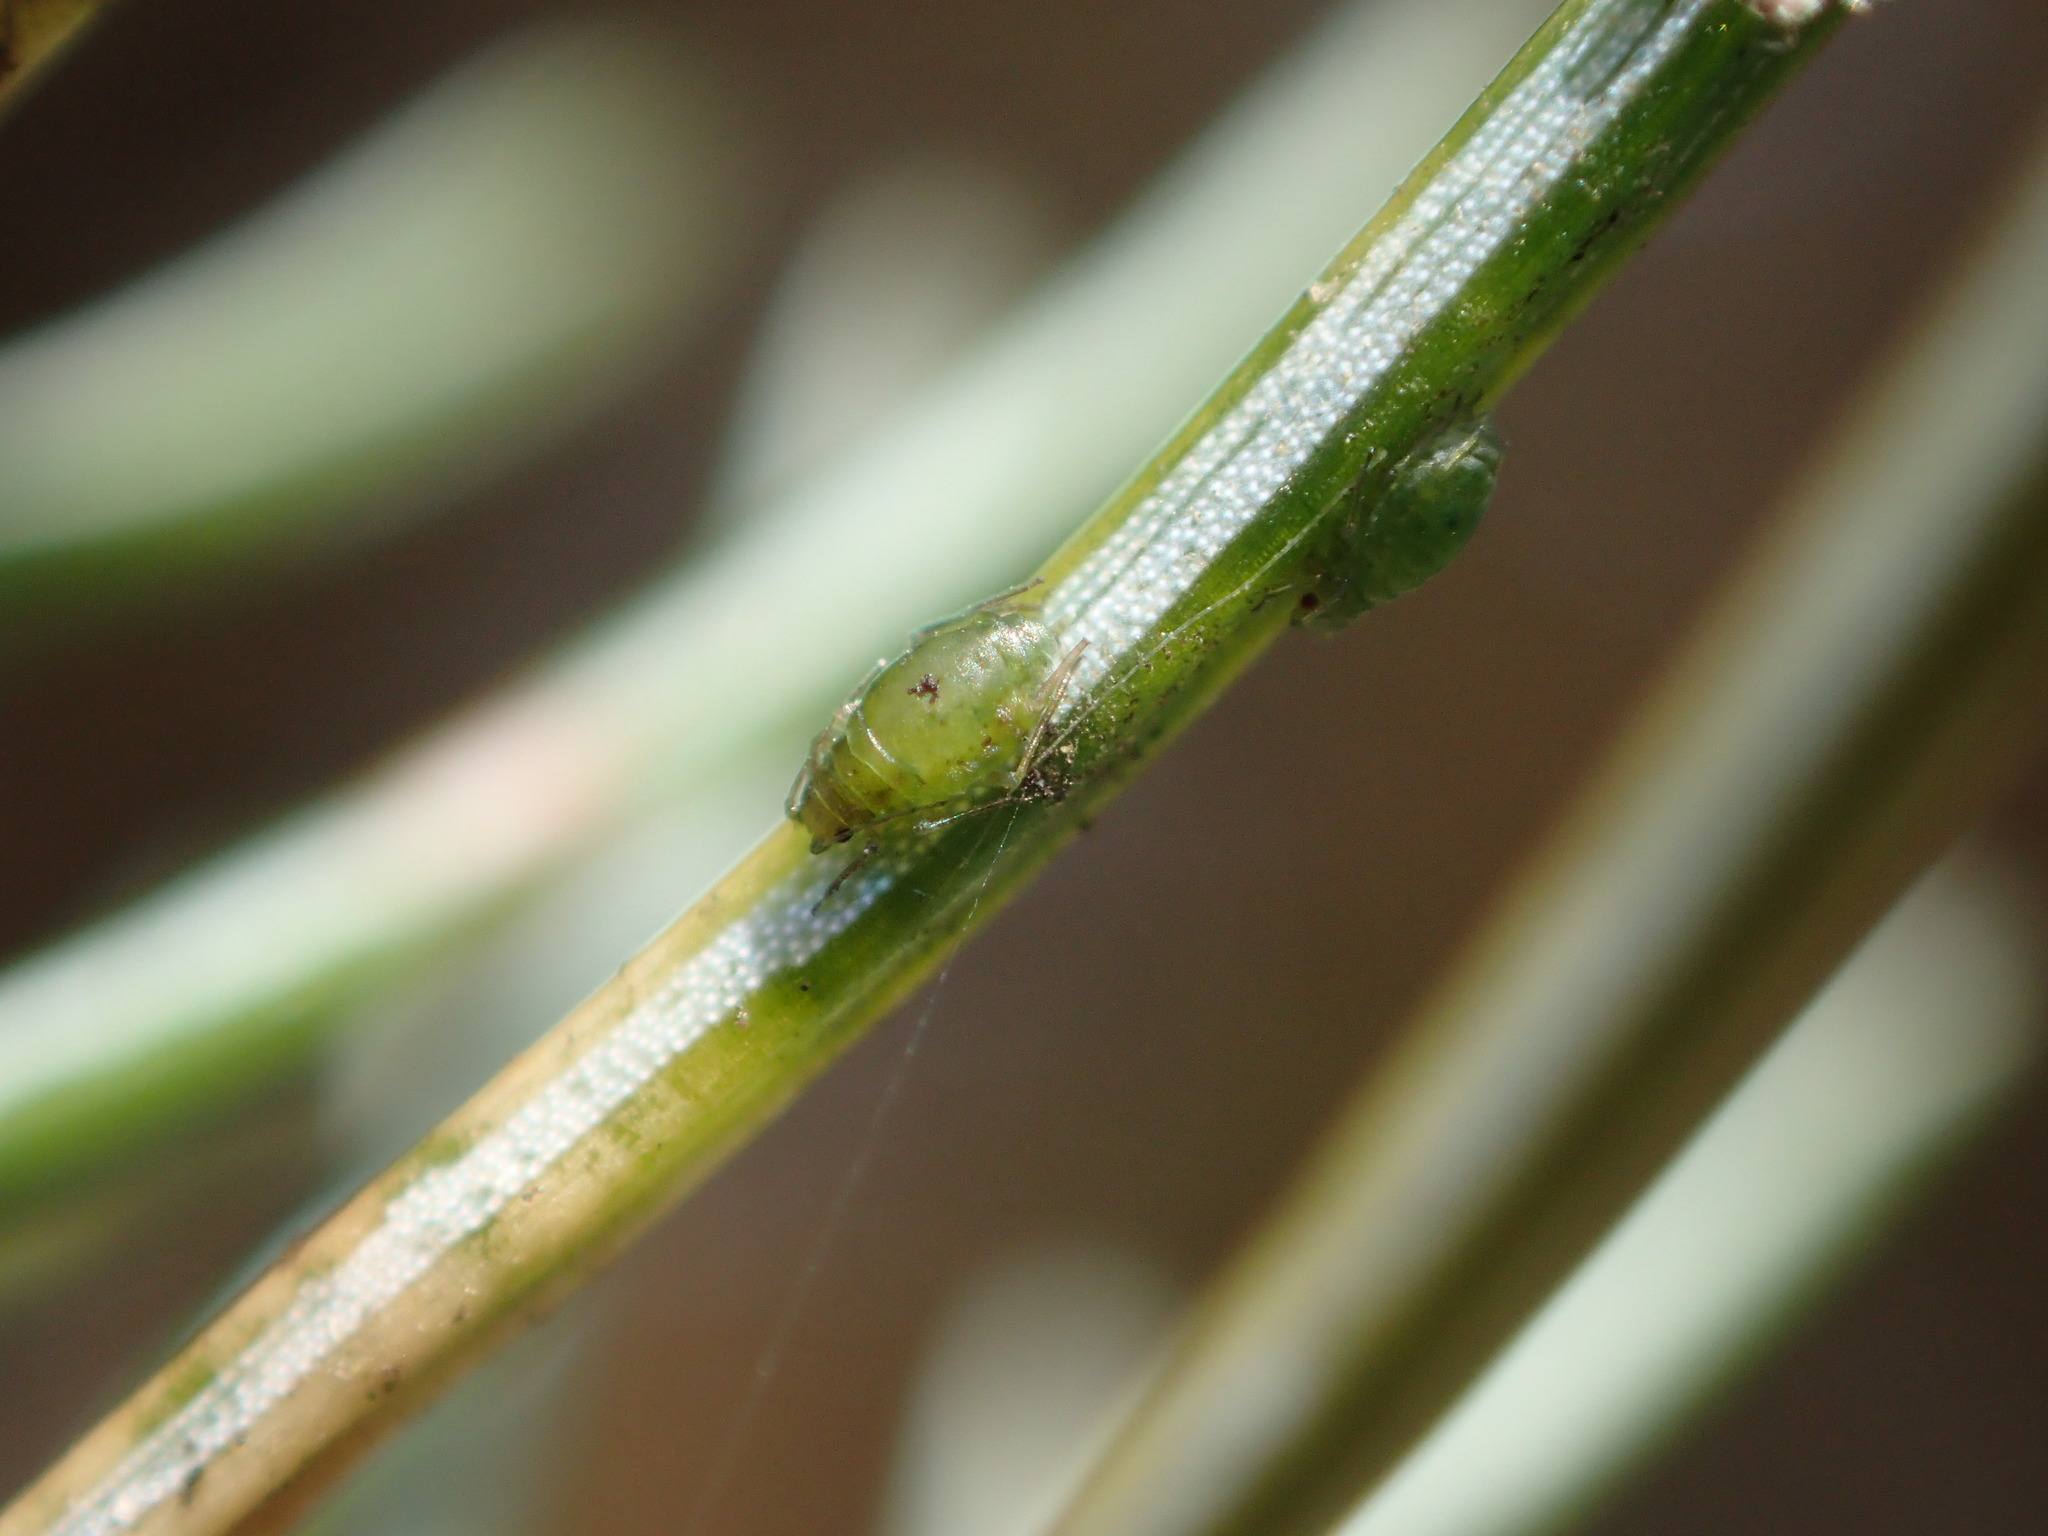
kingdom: Animalia
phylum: Arthropoda
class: Insecta
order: Hemiptera
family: Aphididae
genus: Elatobium
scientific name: Elatobium abietinum
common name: Spruce aphid
